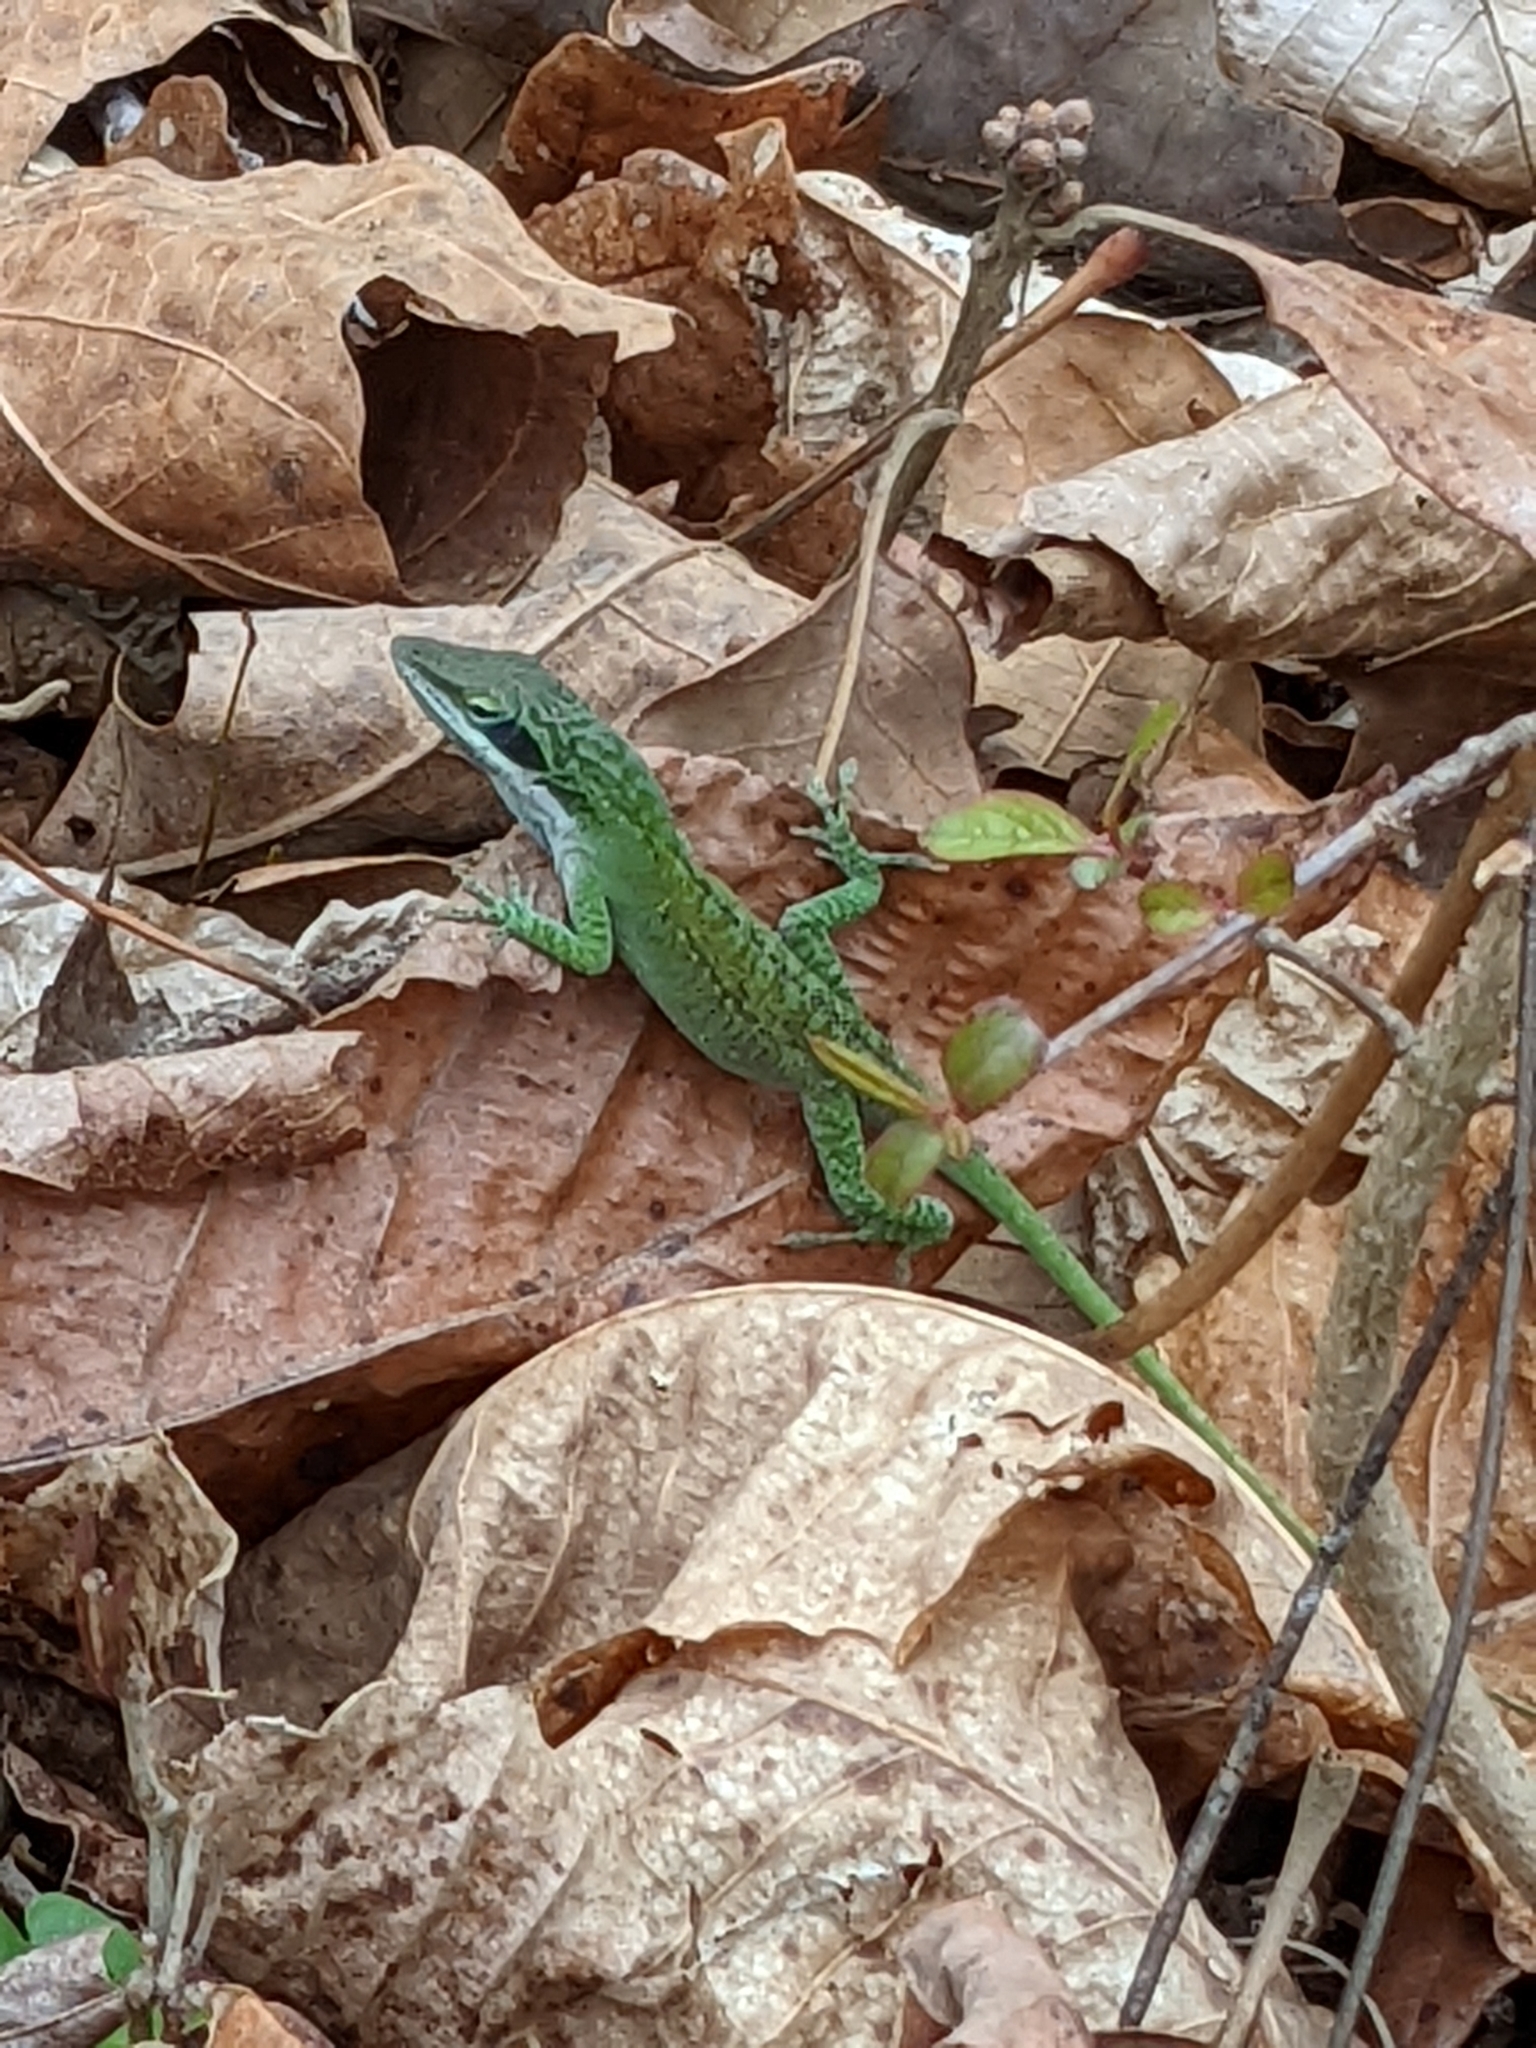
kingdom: Animalia
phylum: Chordata
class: Squamata
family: Dactyloidae
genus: Anolis
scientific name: Anolis carolinensis
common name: Green anole
